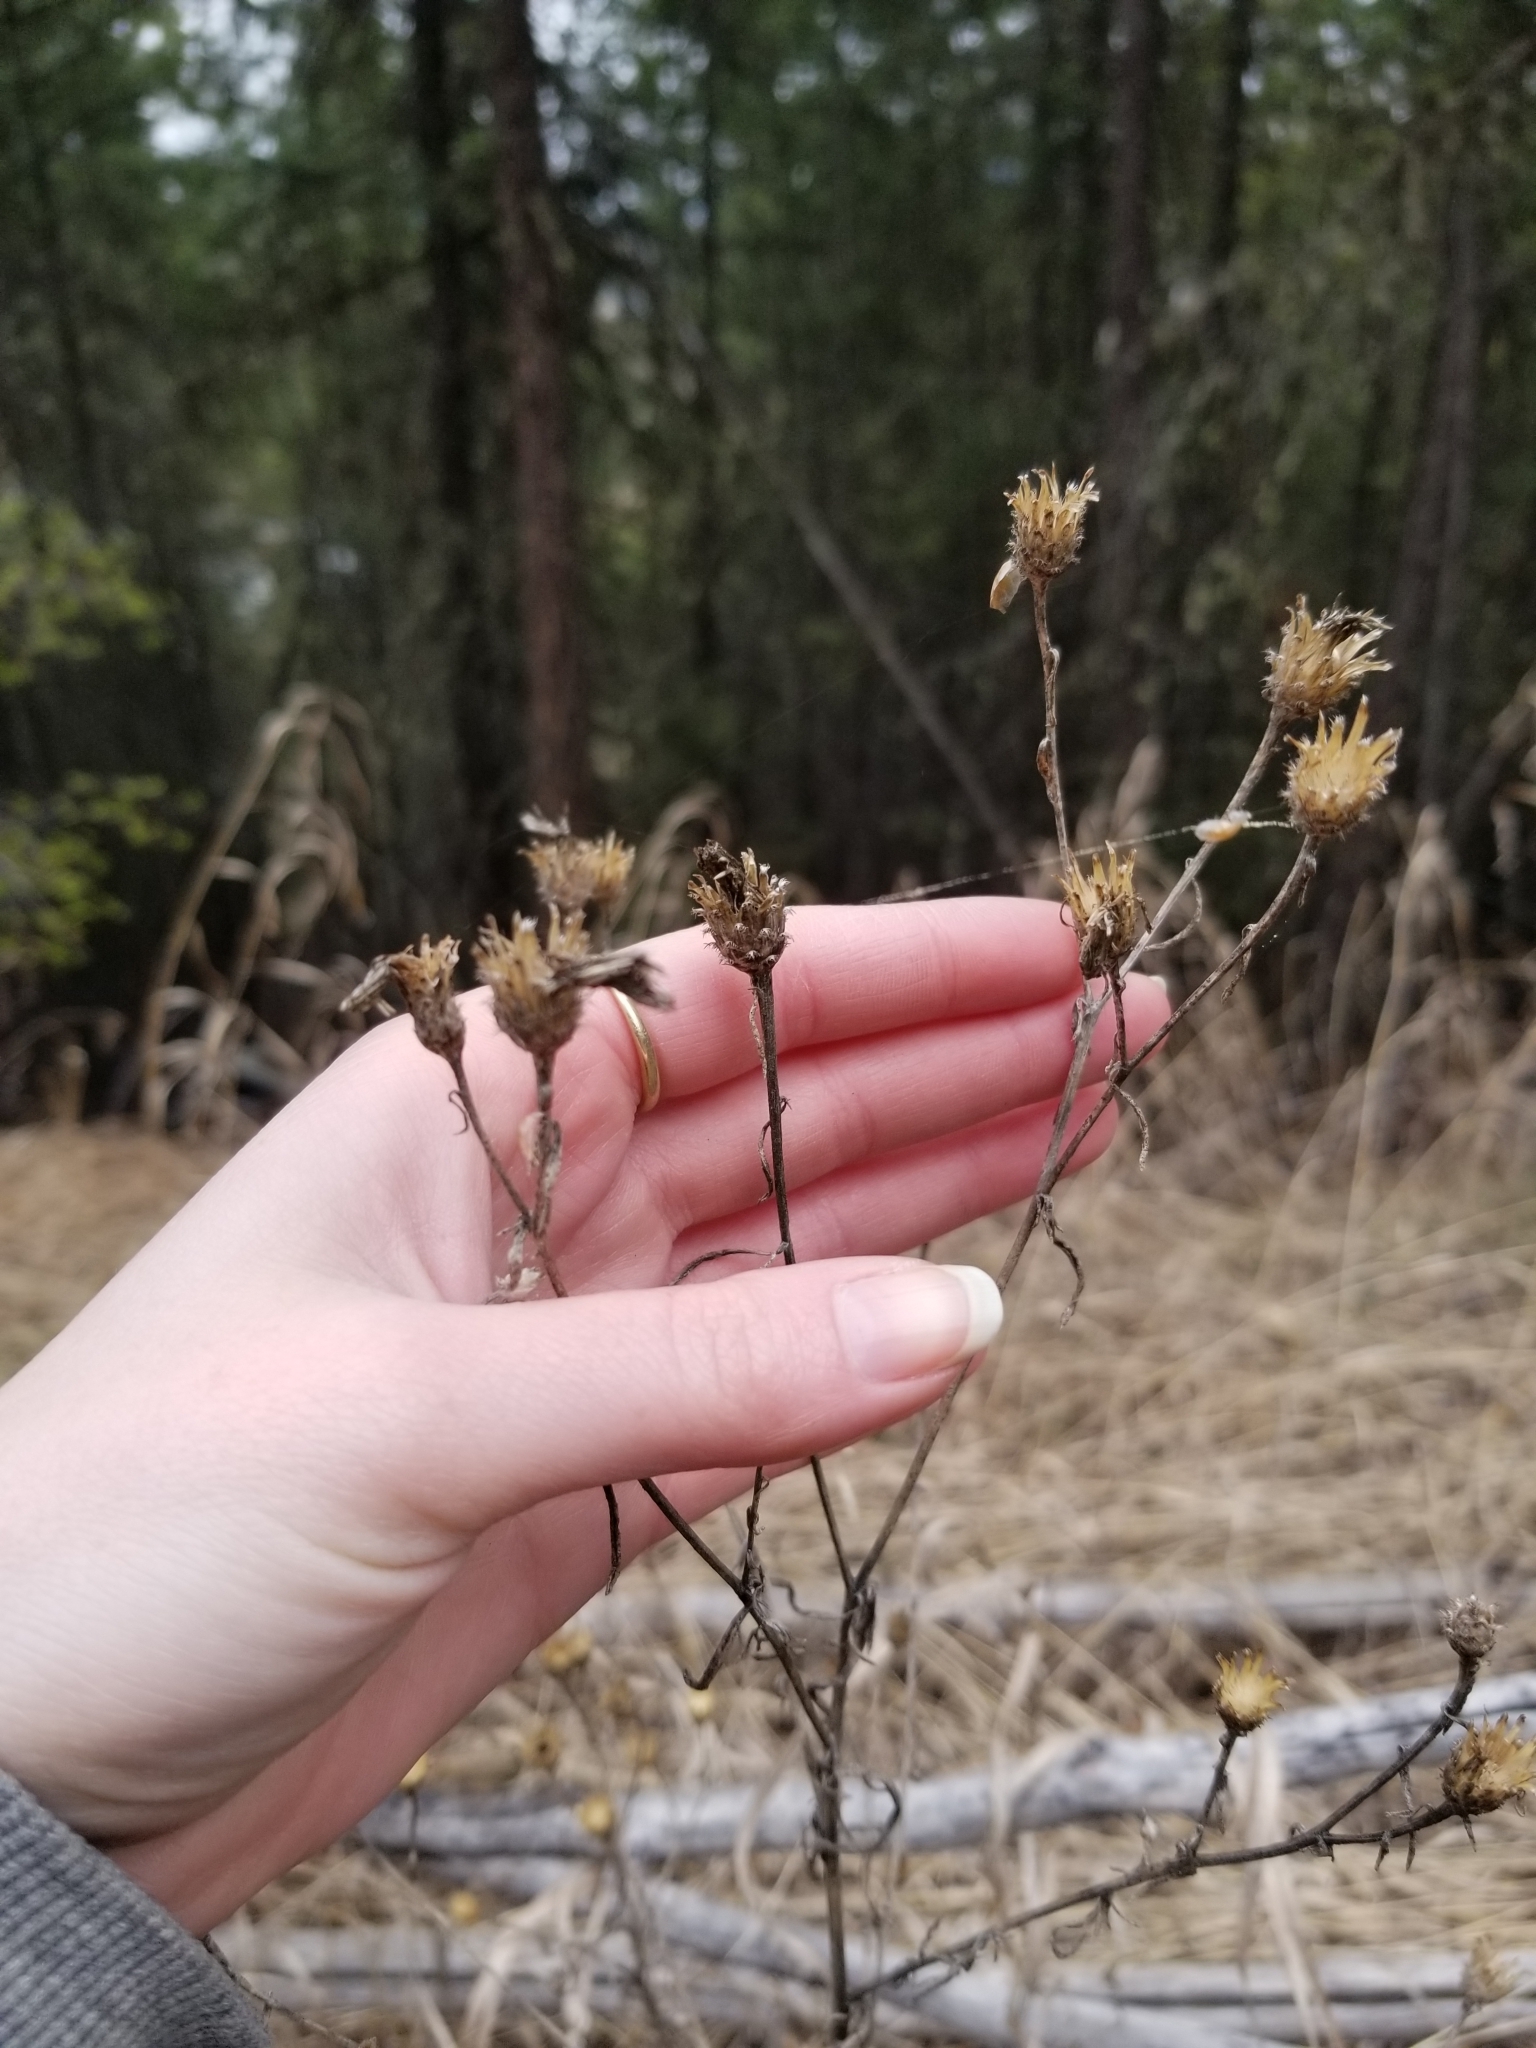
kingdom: Plantae
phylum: Tracheophyta
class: Magnoliopsida
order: Asterales
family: Asteraceae
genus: Centaurea
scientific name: Centaurea stoebe
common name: Spotted knapweed
